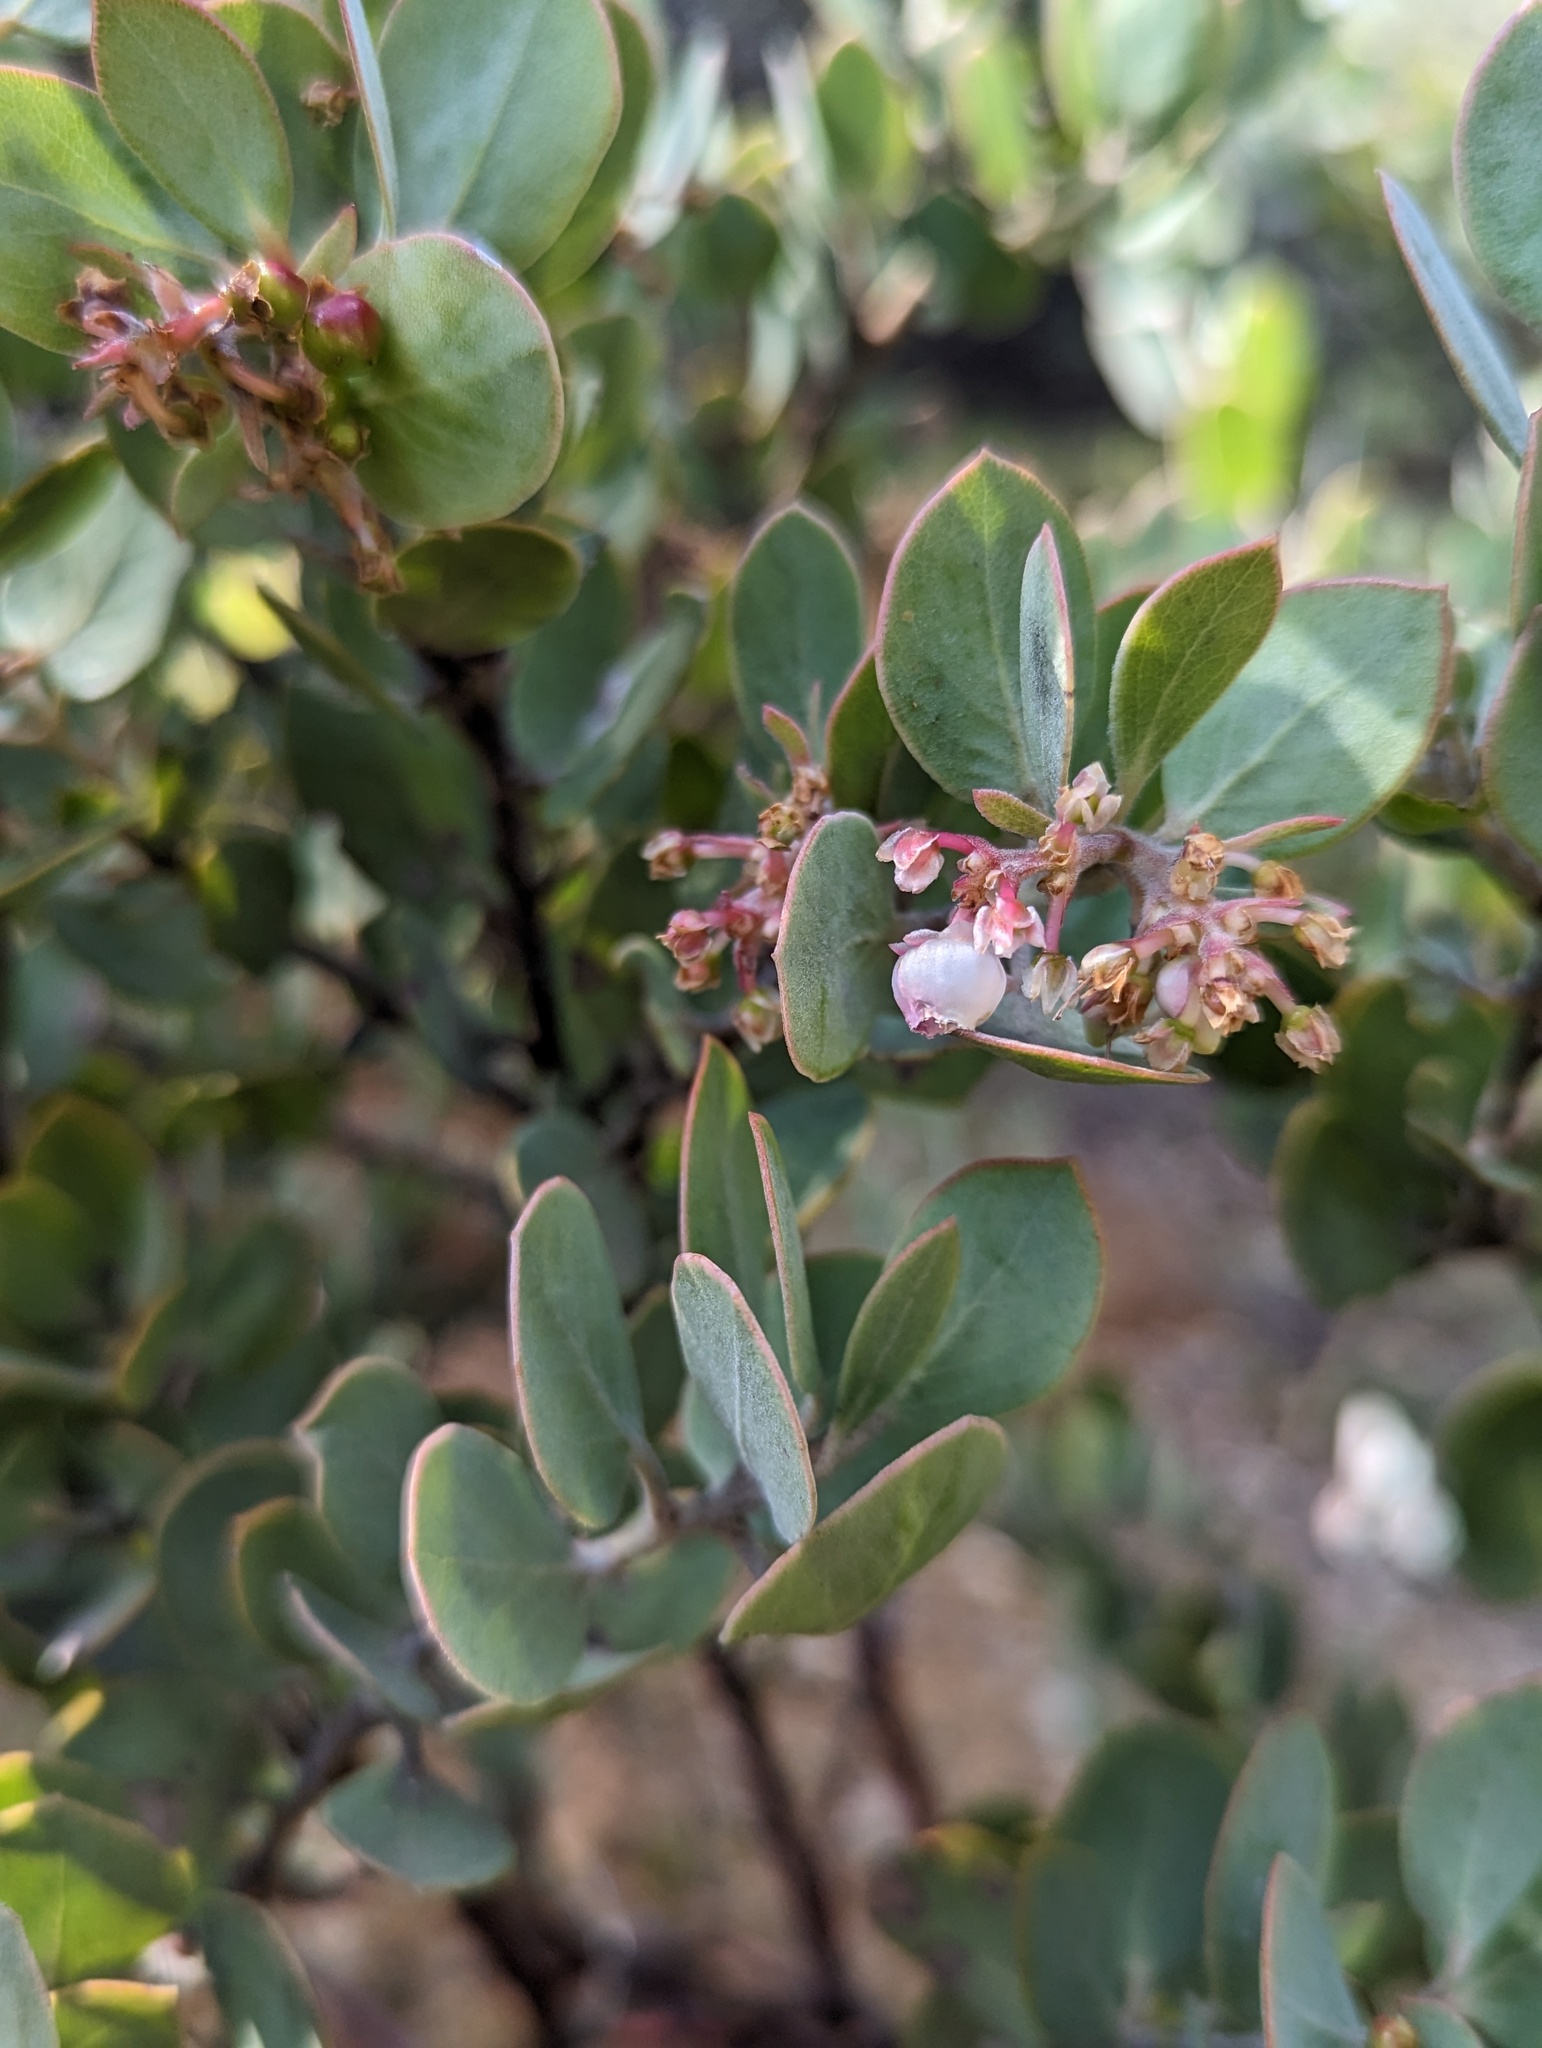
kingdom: Plantae
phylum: Tracheophyta
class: Magnoliopsida
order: Ericales
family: Ericaceae
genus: Arctostaphylos
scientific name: Arctostaphylos obispoensis
